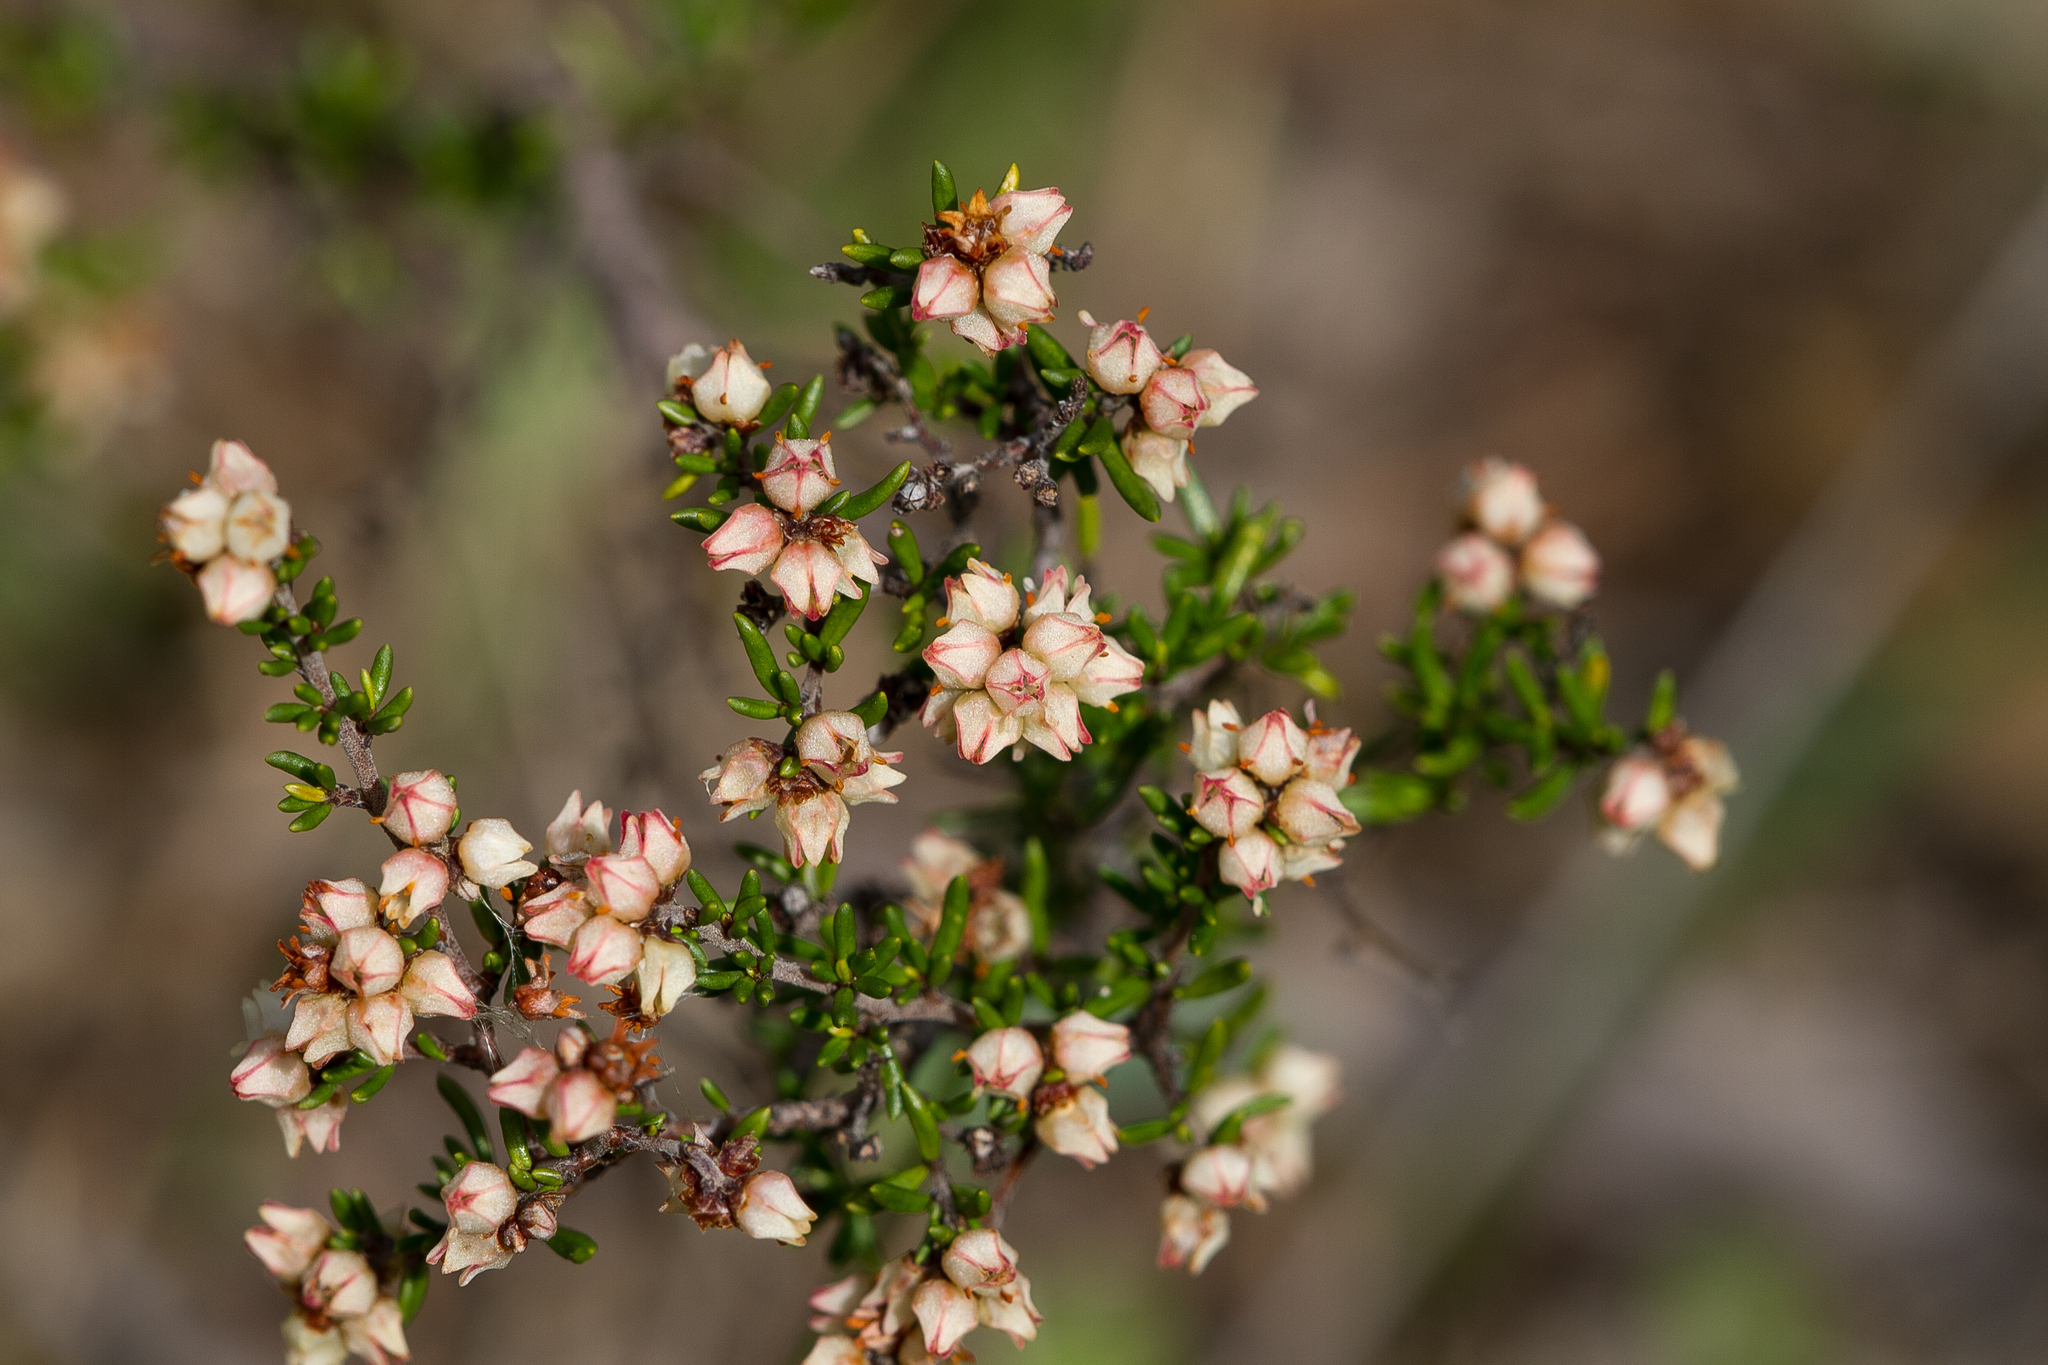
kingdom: Plantae
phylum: Tracheophyta
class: Magnoliopsida
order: Rosales
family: Rhamnaceae
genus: Cryptandra
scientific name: Cryptandra tomentosa
